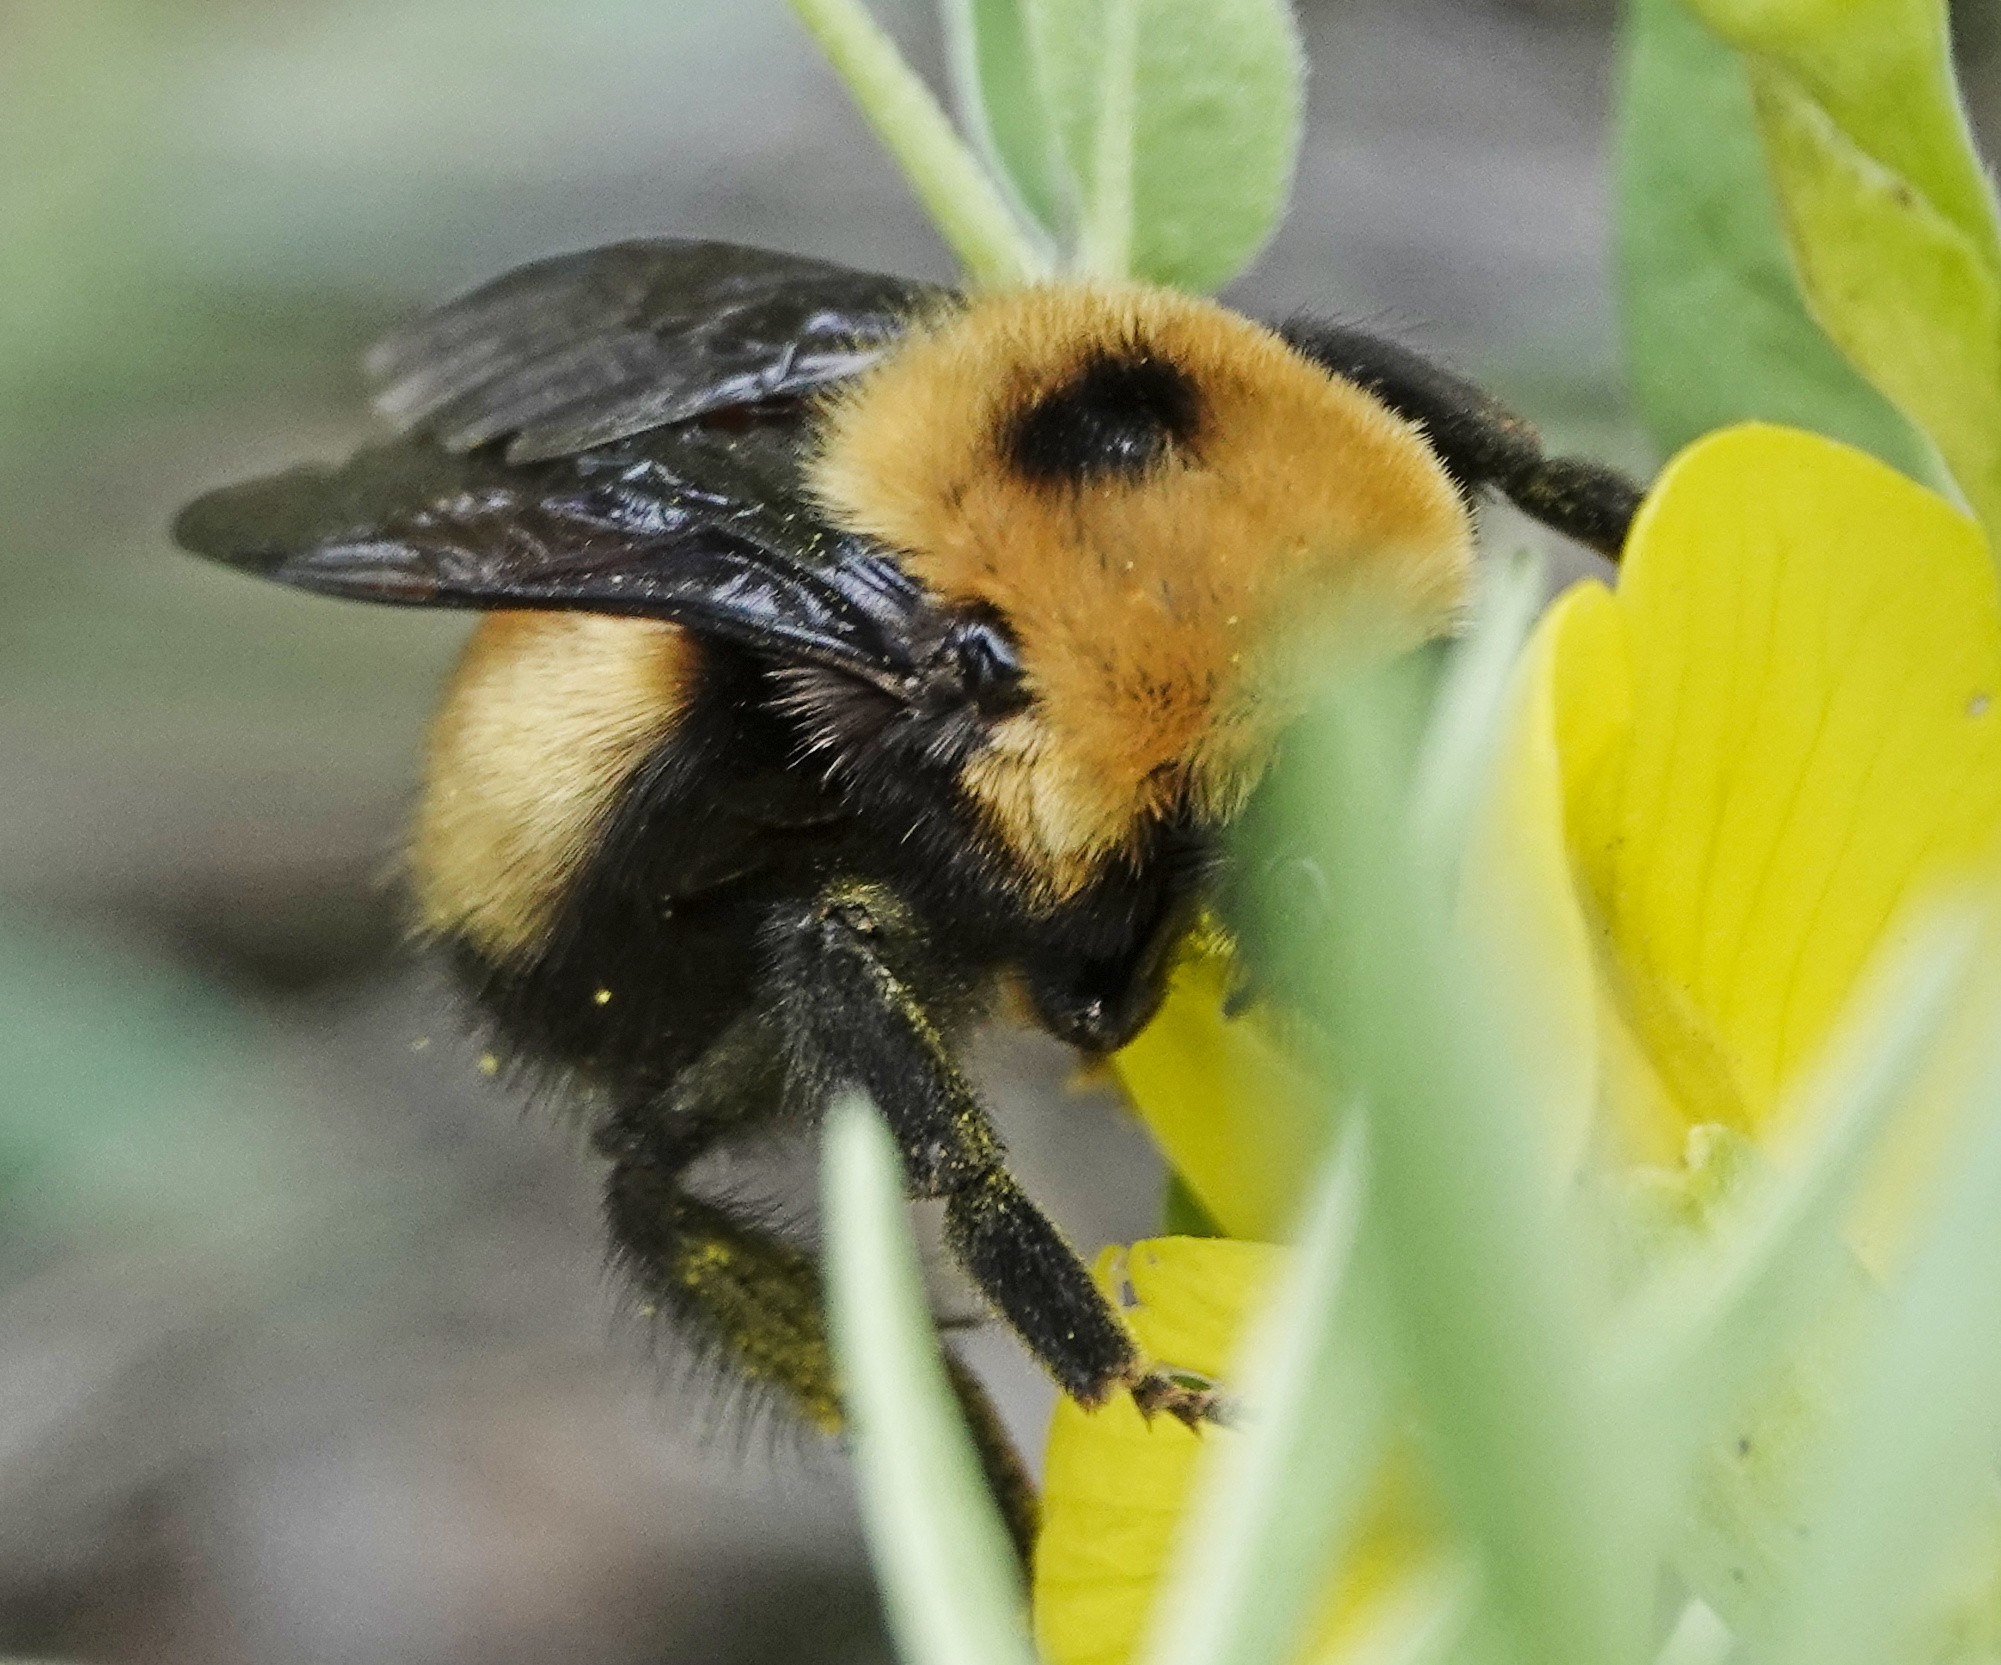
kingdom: Animalia
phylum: Arthropoda
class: Insecta
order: Hymenoptera
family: Apidae
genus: Bombus
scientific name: Bombus nevadensis
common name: Nevada bumble bee
